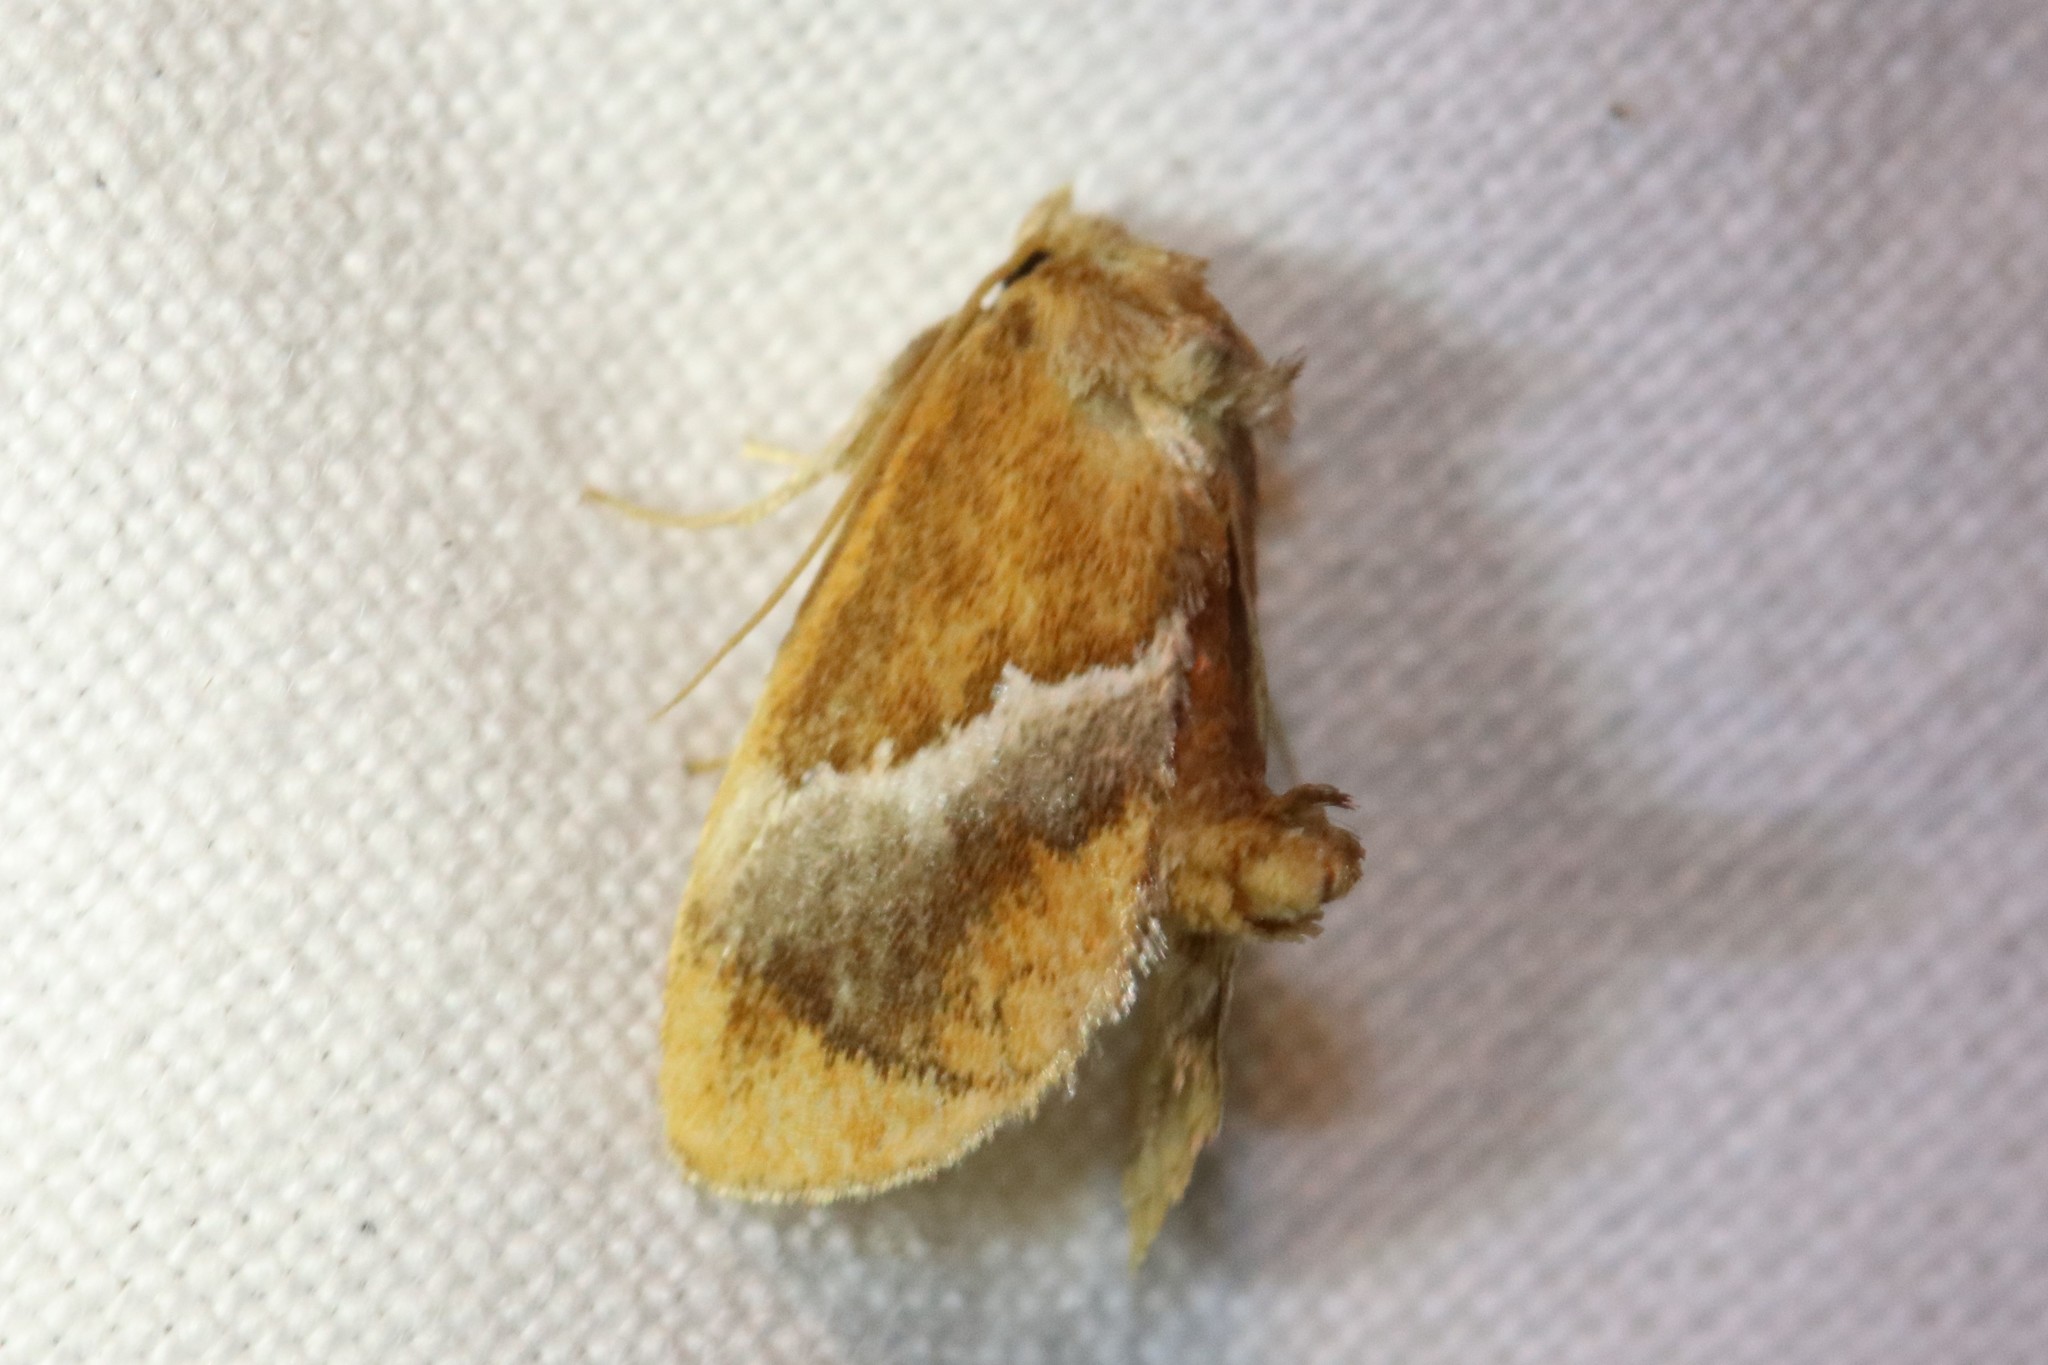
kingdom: Animalia
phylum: Arthropoda
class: Insecta
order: Lepidoptera
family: Limacodidae
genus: Lithacodes
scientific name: Lithacodes fasciola
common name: Yellow-shouldered slug moth
